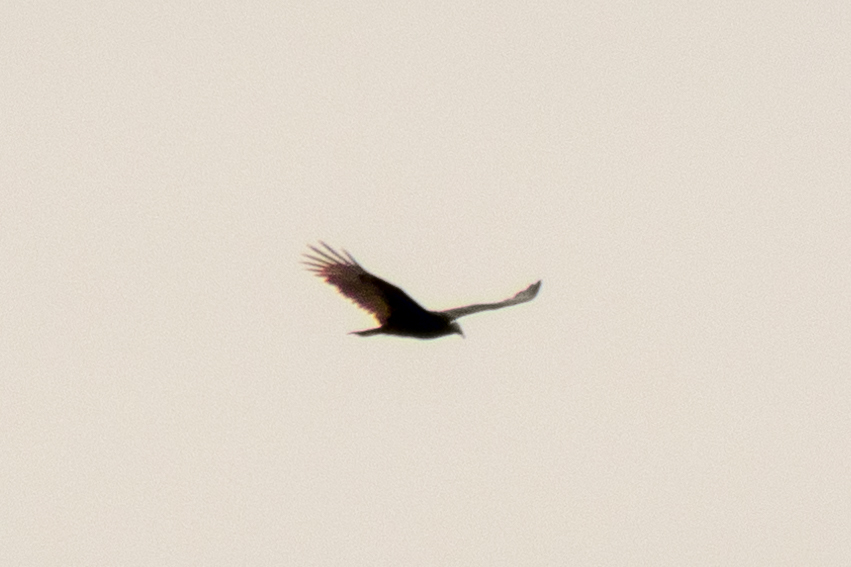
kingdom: Animalia
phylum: Chordata
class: Aves
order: Accipitriformes
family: Cathartidae
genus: Cathartes
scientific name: Cathartes aura
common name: Turkey vulture
